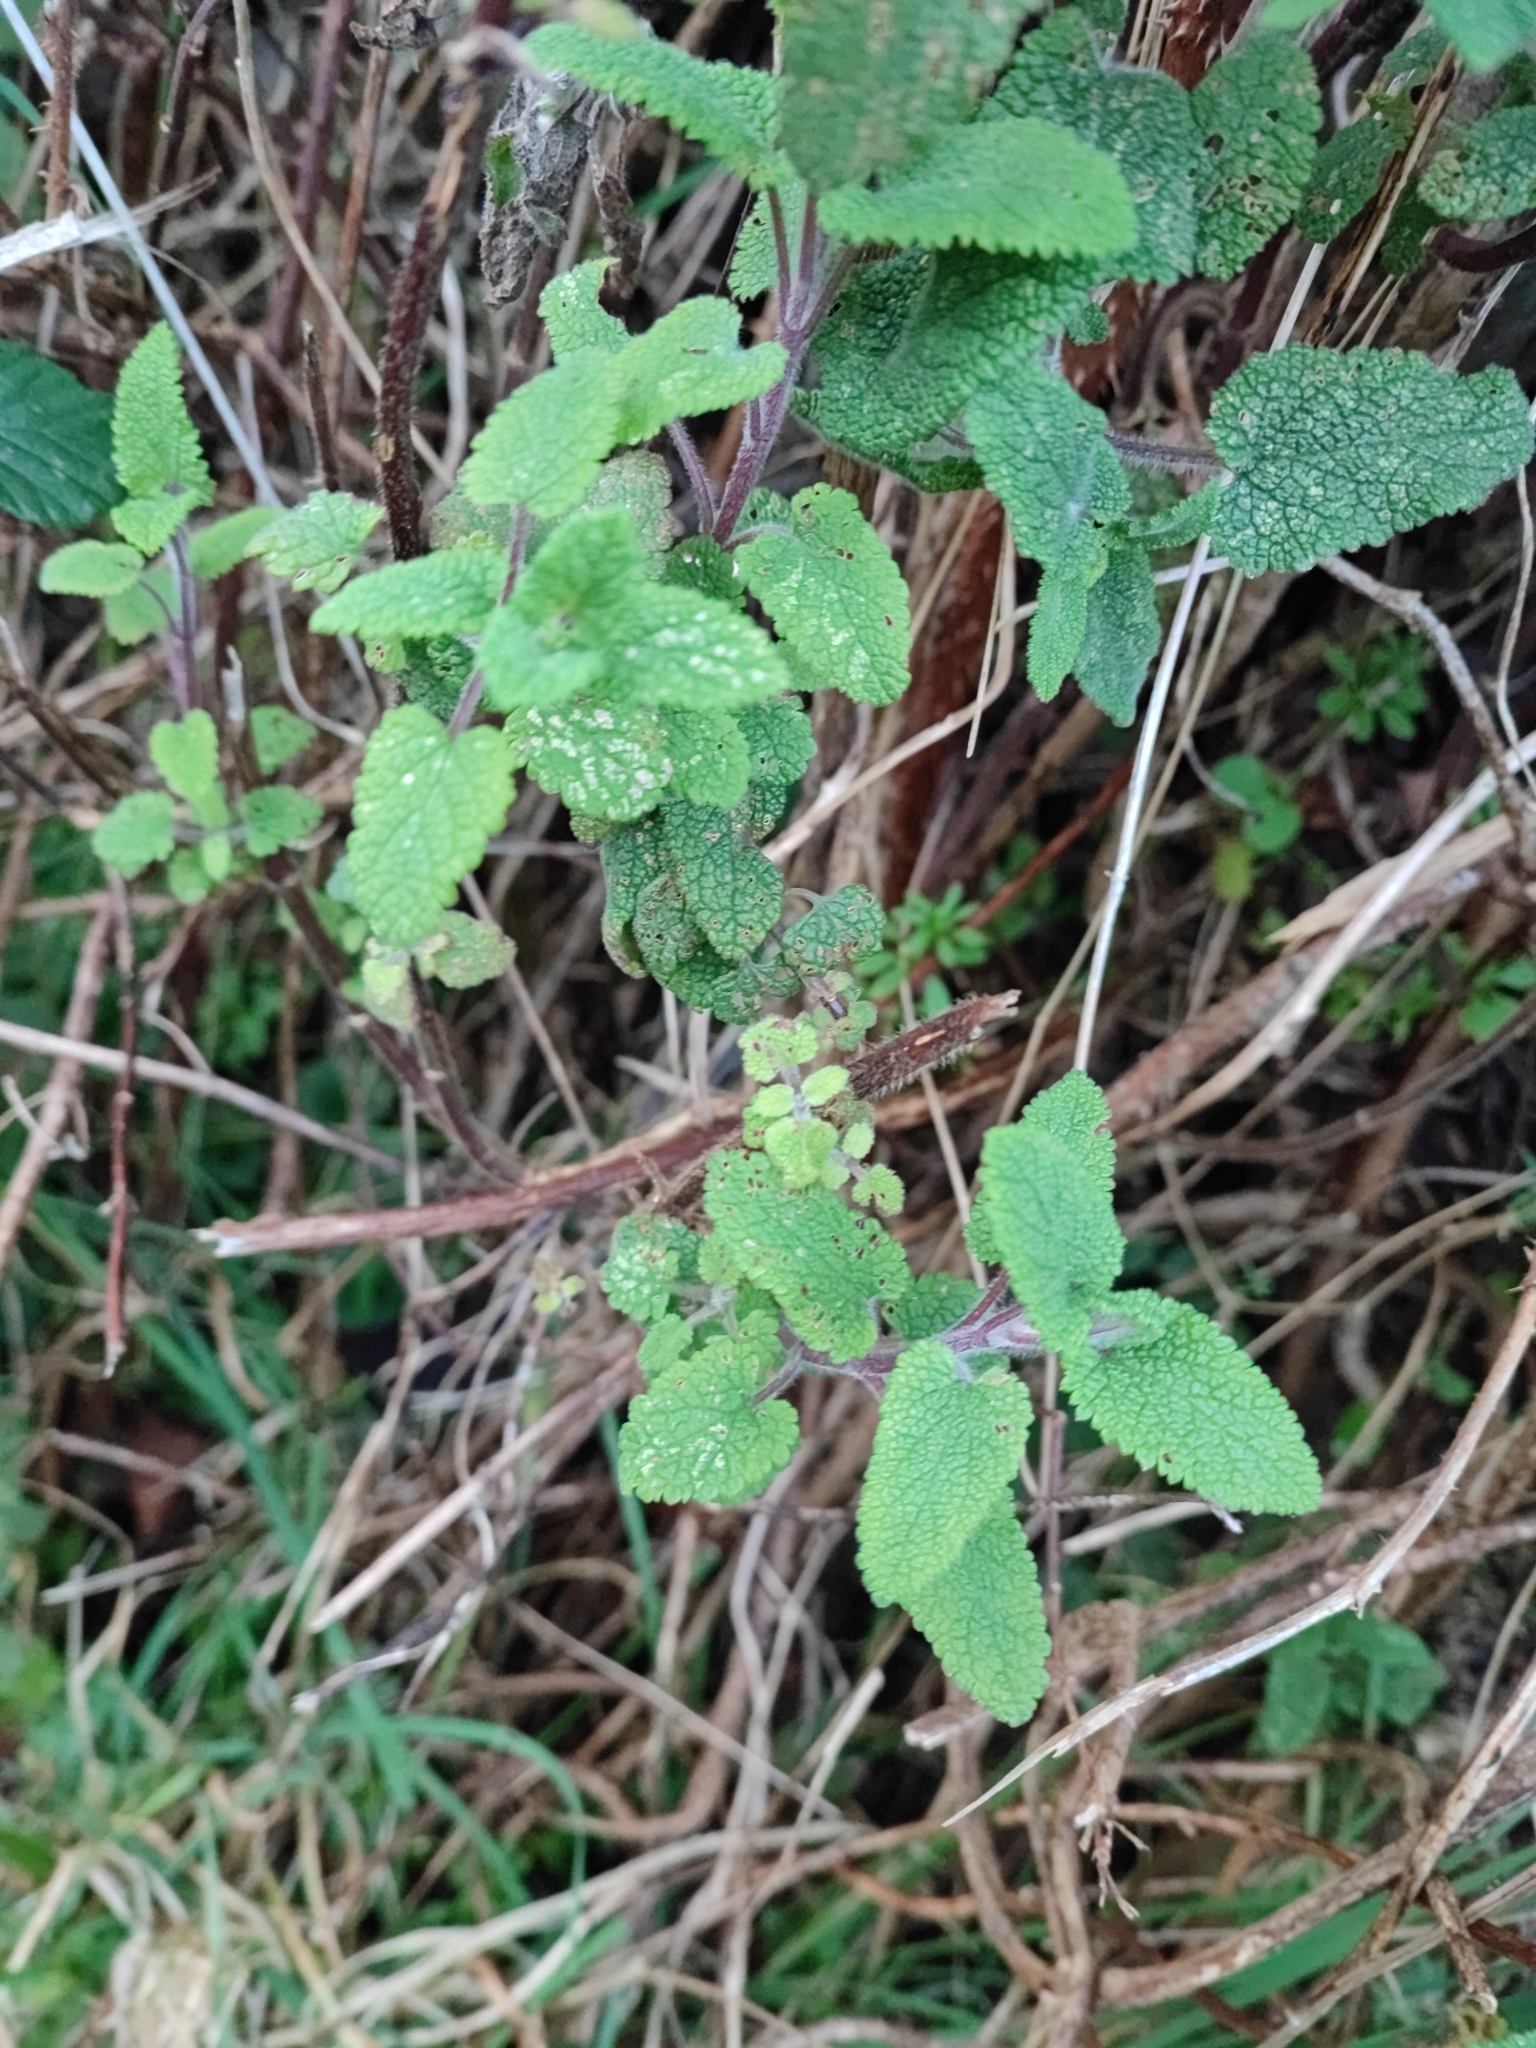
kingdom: Plantae
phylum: Tracheophyta
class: Magnoliopsida
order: Lamiales
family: Lamiaceae
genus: Teucrium
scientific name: Teucrium scorodonia
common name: Woodland germander
